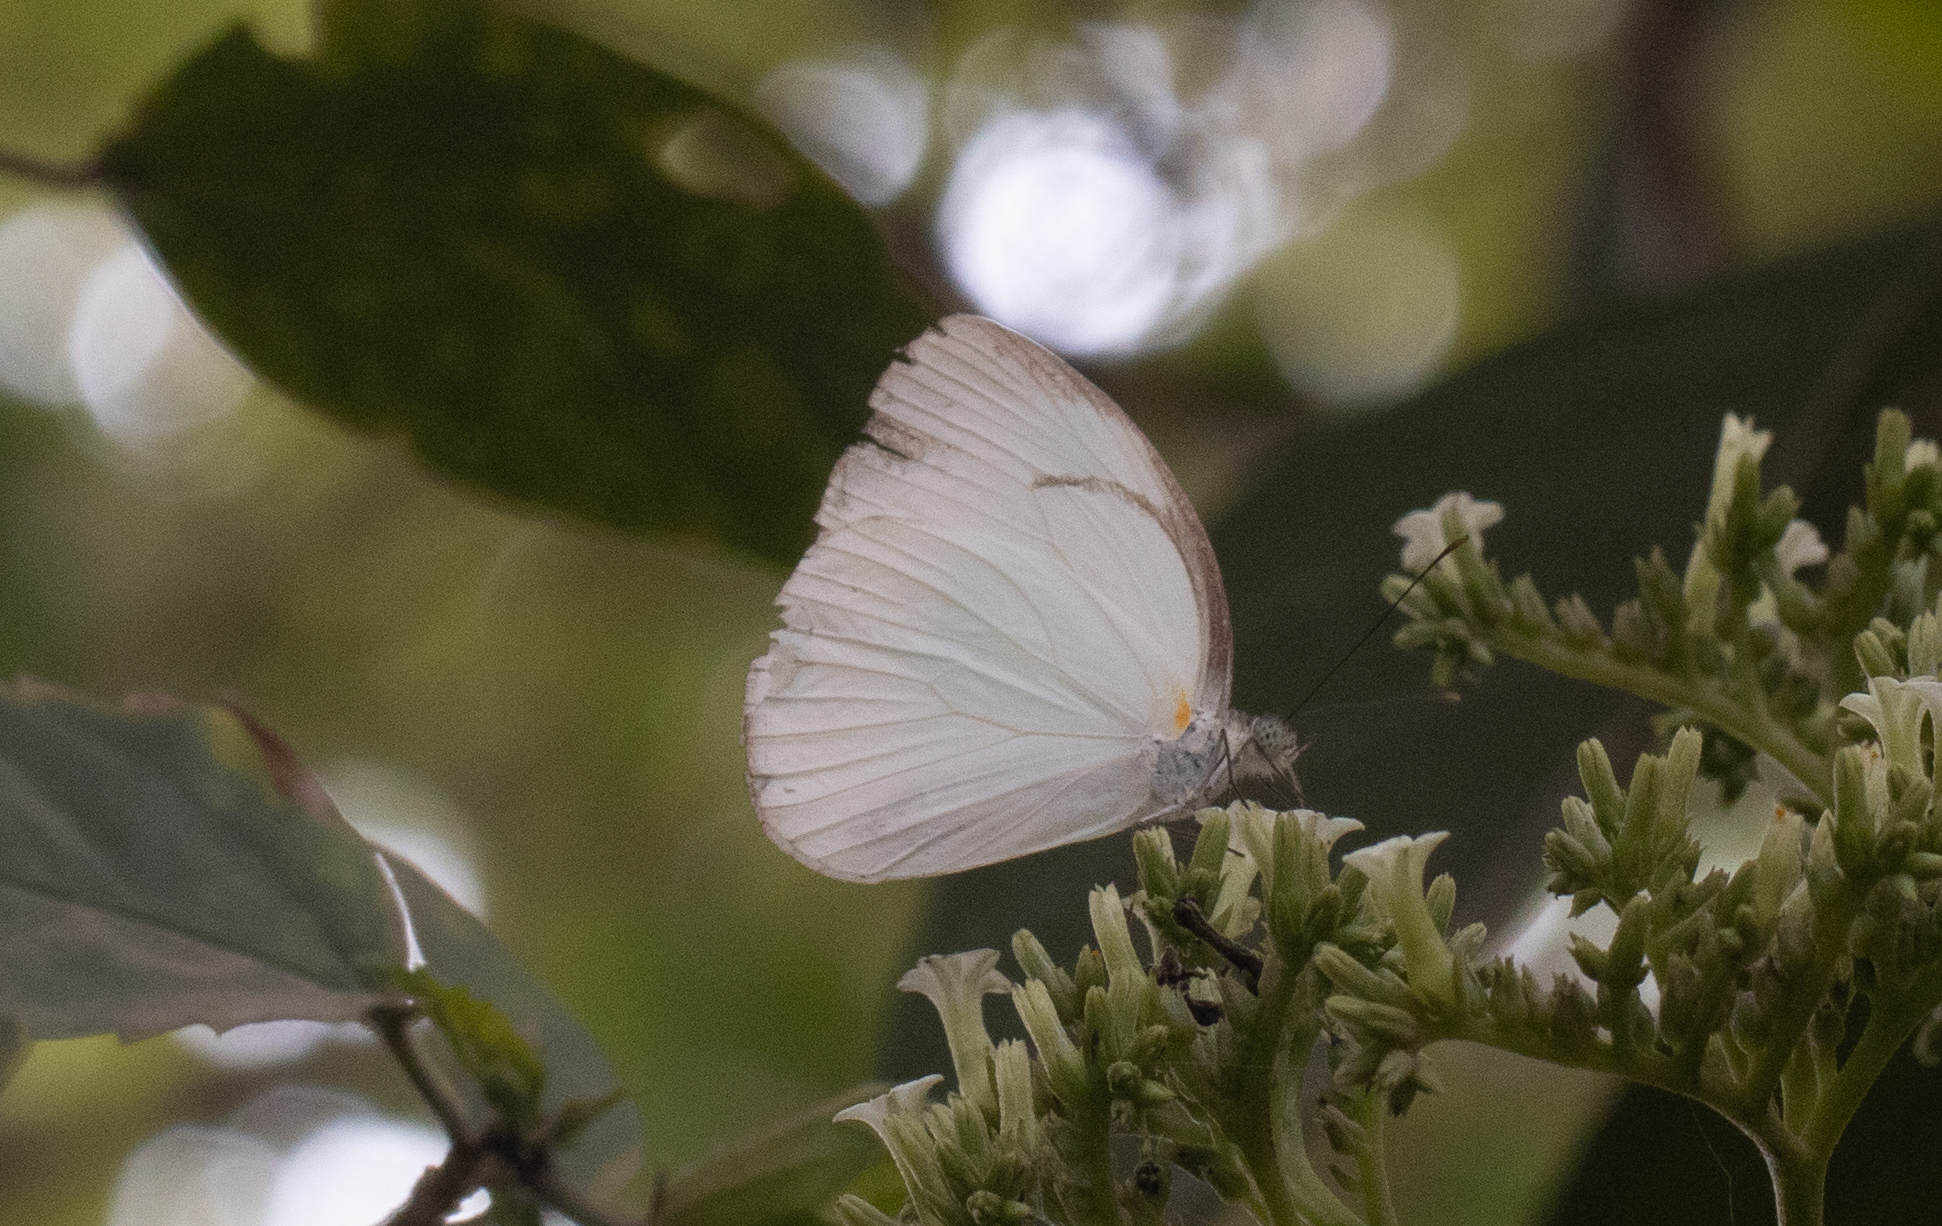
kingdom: Animalia
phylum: Arthropoda
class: Insecta
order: Lepidoptera
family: Pieridae
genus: Itaballia
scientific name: Itaballia demophile
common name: Cross-barred white
